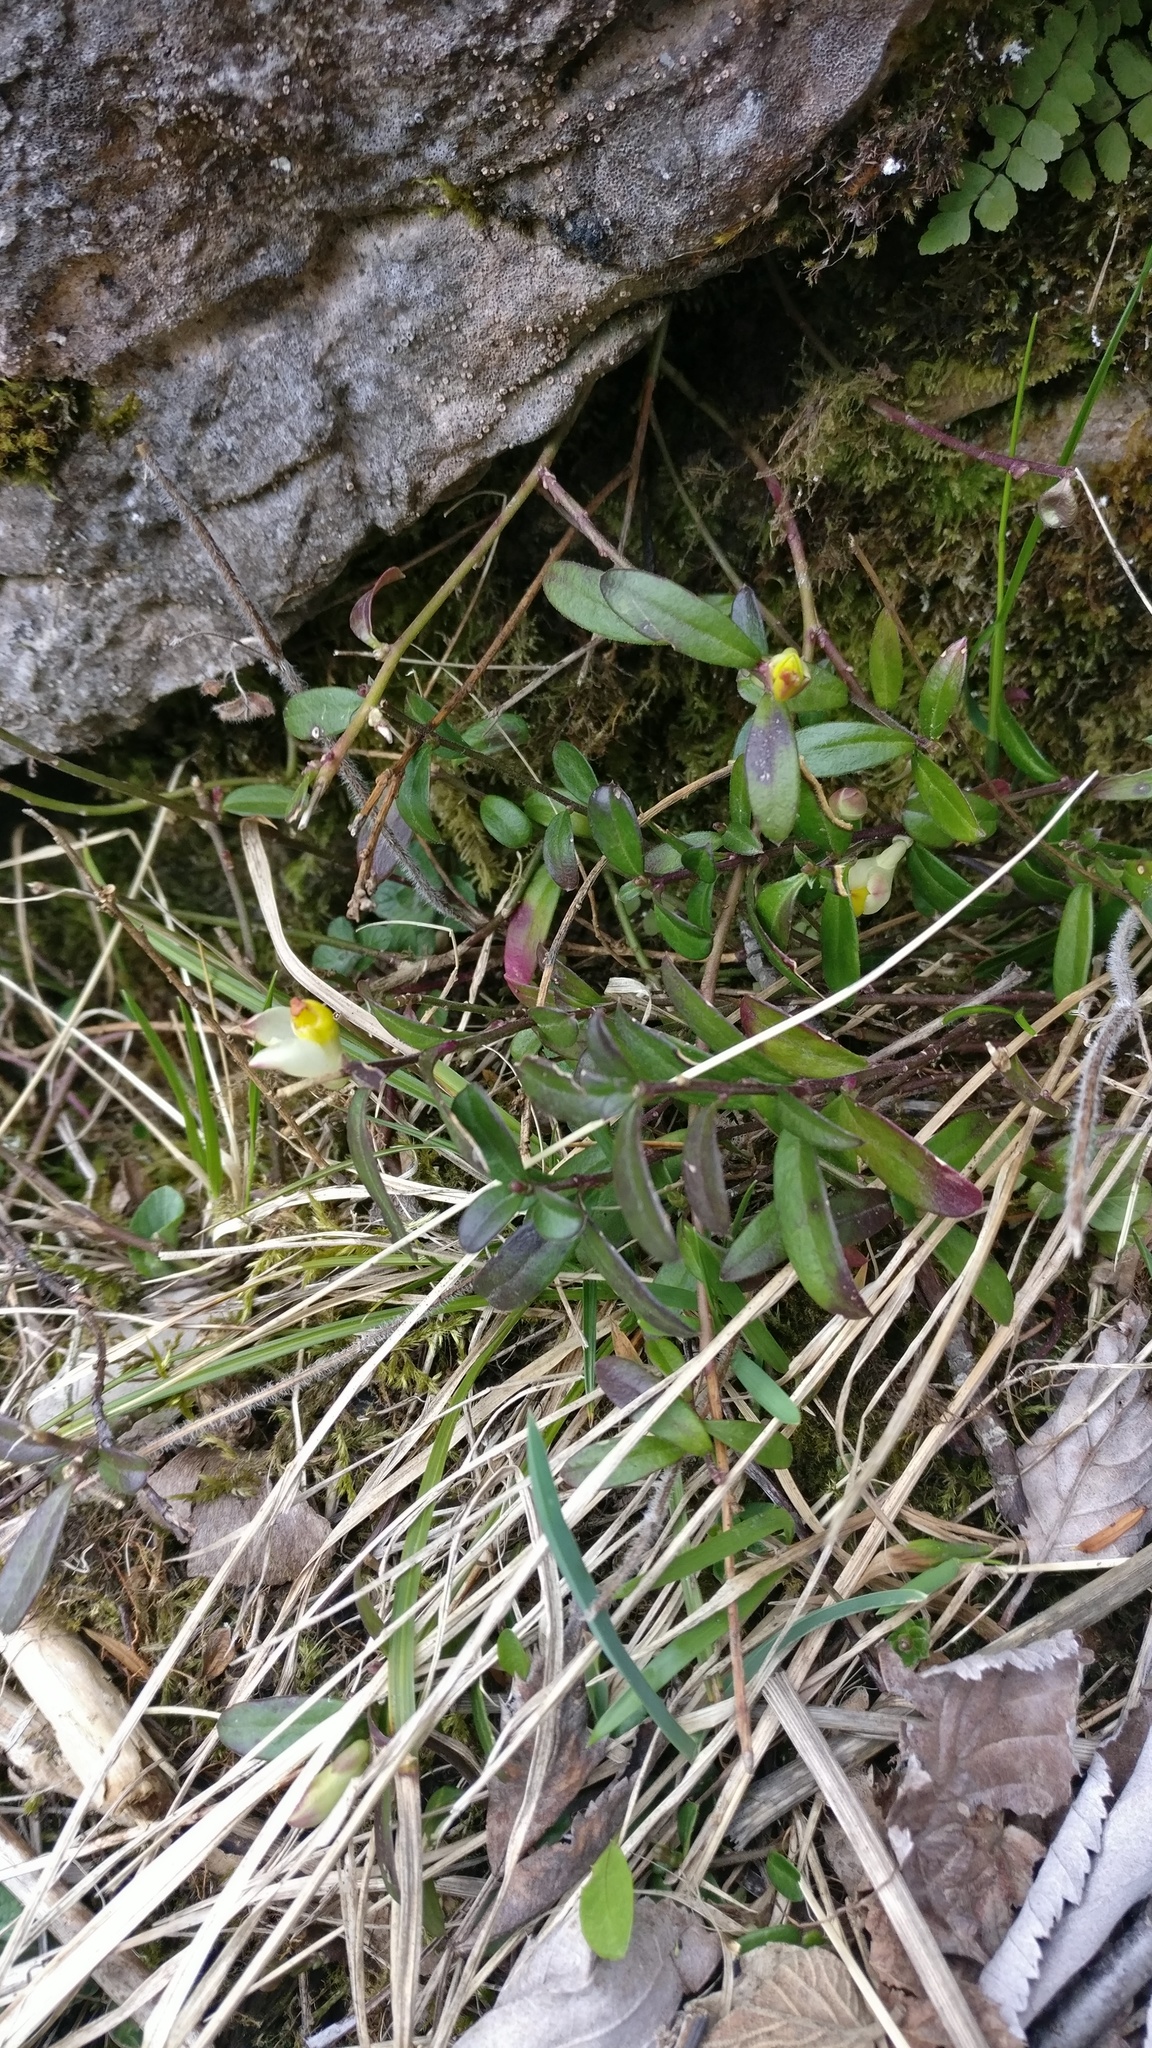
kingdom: Plantae
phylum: Tracheophyta
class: Magnoliopsida
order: Fabales
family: Polygalaceae
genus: Polygaloides
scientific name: Polygaloides chamaebuxus
